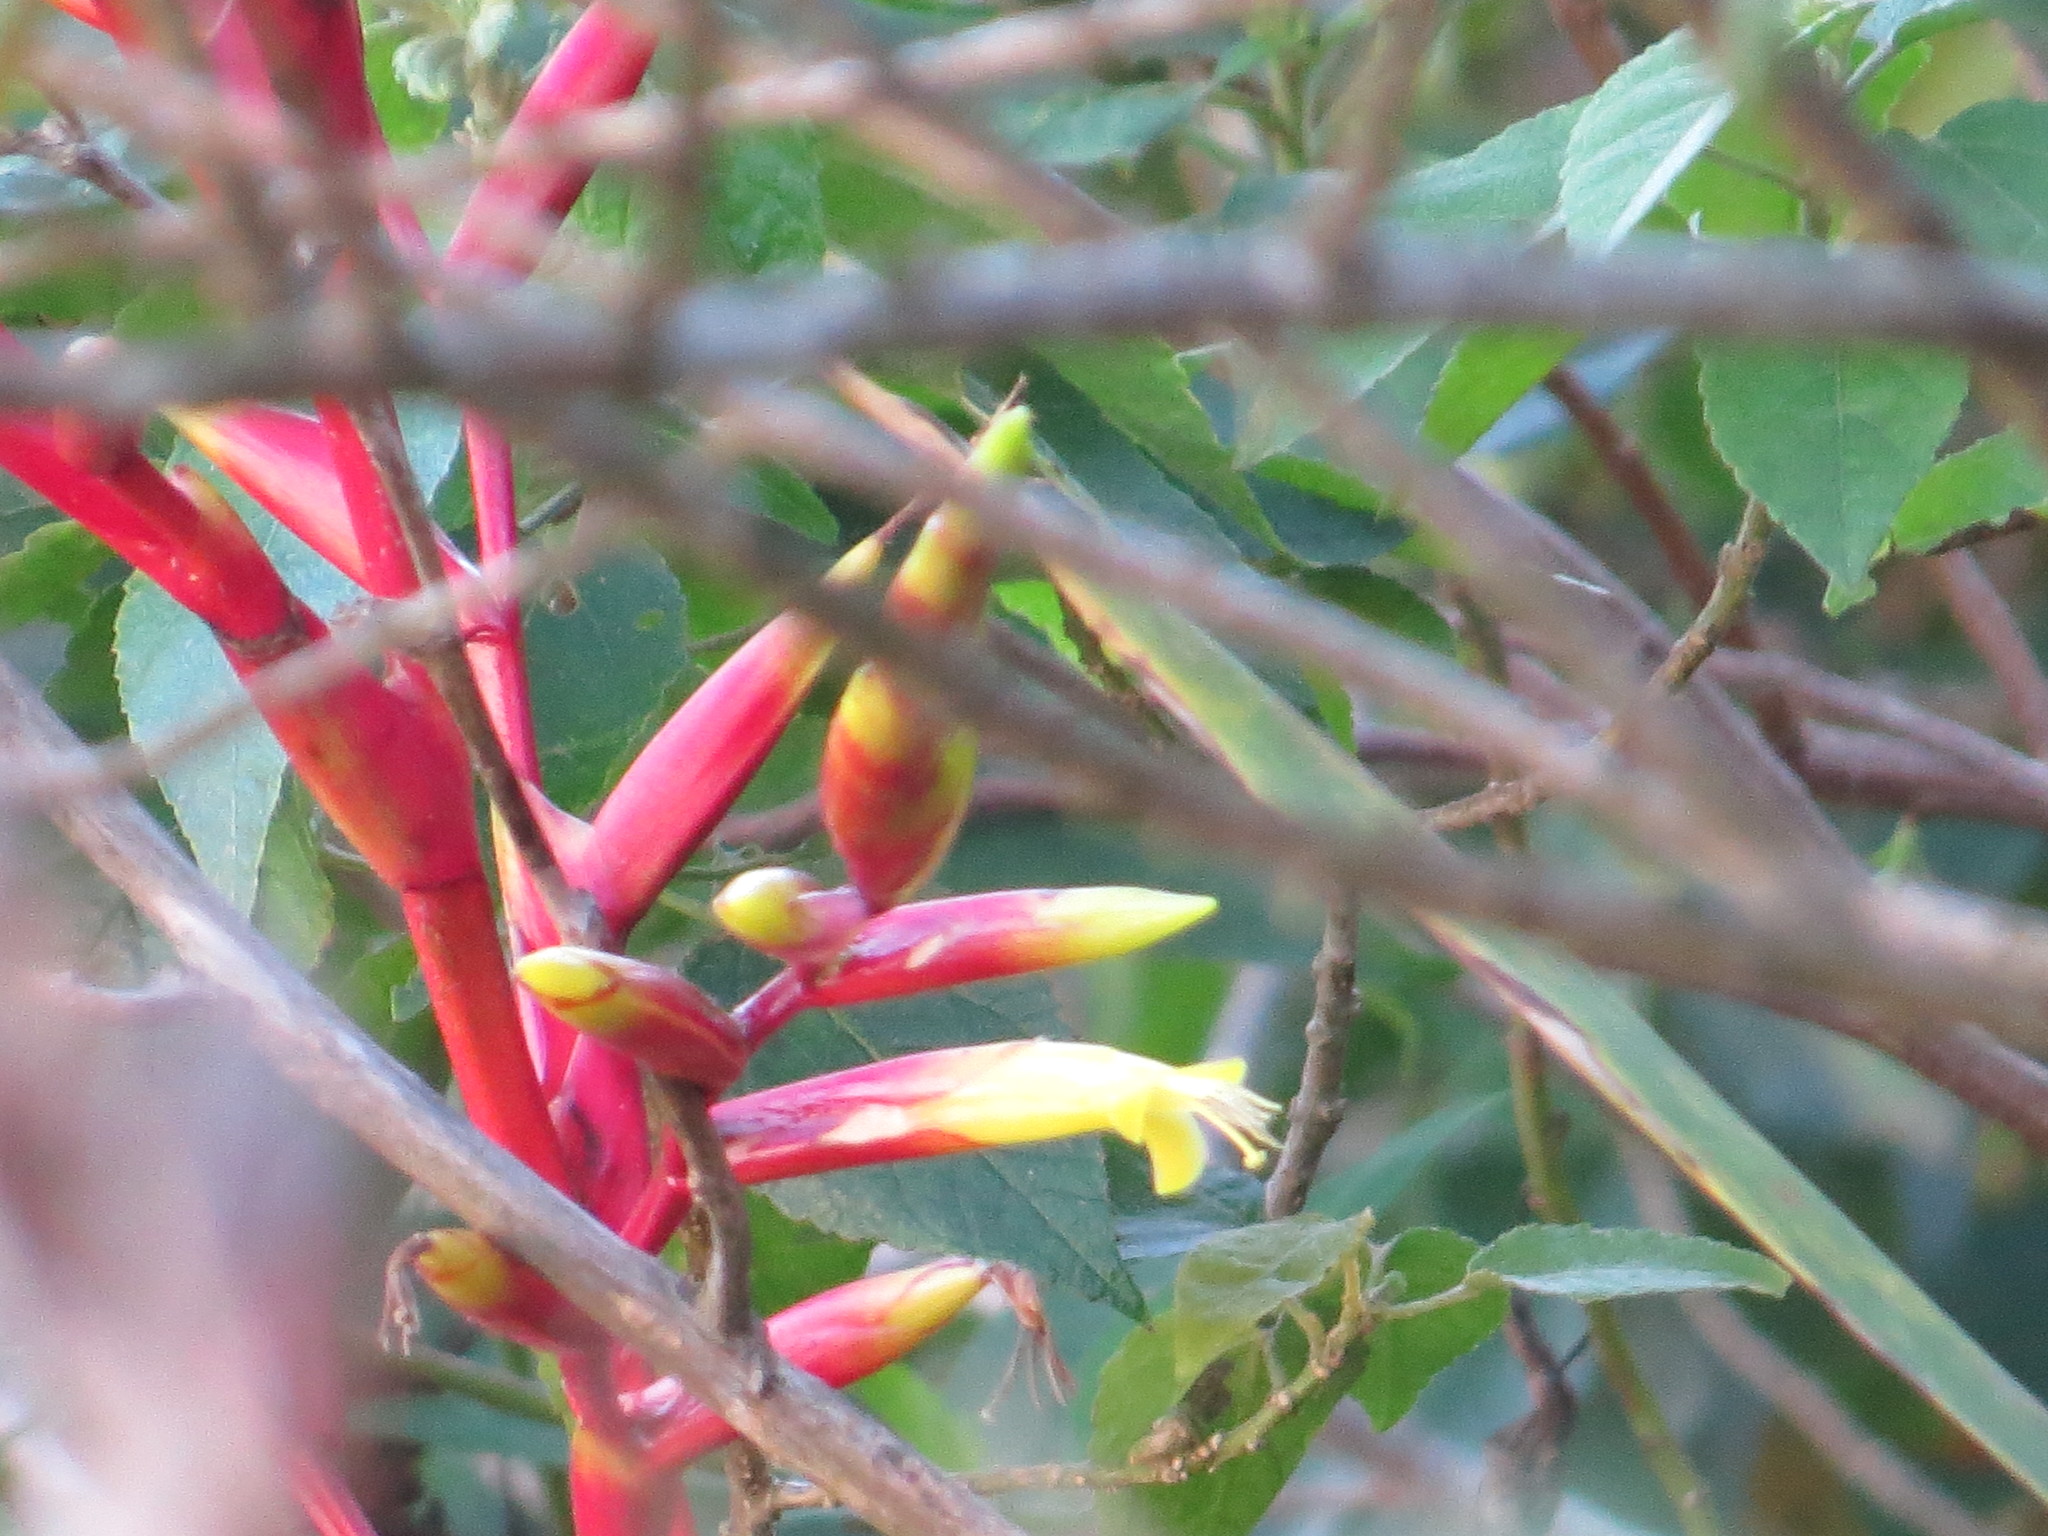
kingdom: Plantae
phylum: Tracheophyta
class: Liliopsida
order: Poales
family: Bromeliaceae
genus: Vriesea
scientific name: Vriesea neoglutinosa
